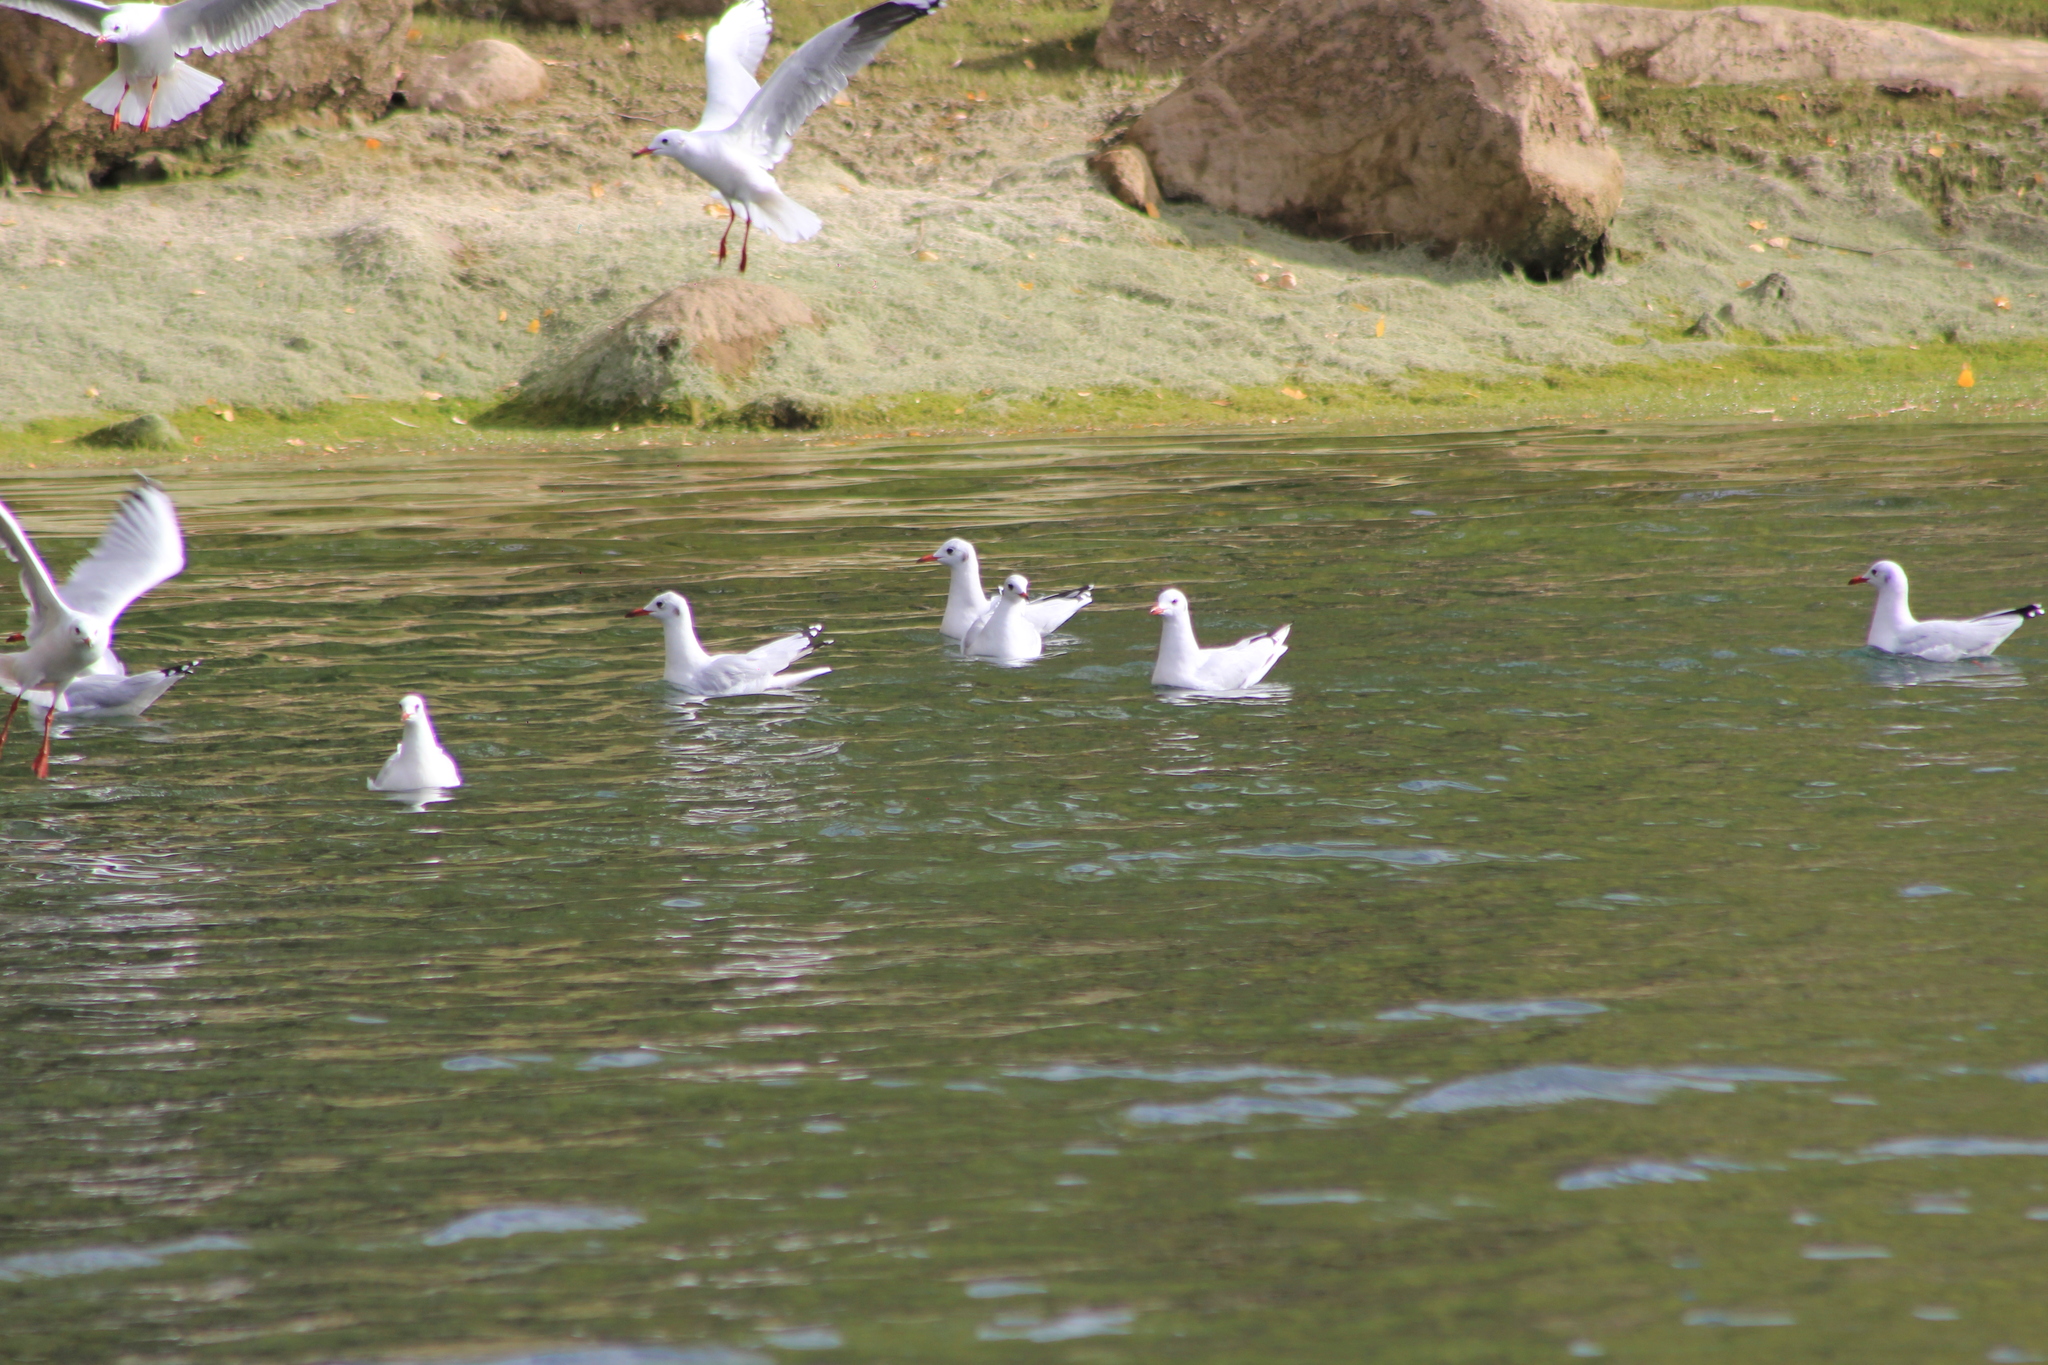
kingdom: Animalia
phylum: Chordata
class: Aves
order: Charadriiformes
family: Laridae
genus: Chroicocephalus
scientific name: Chroicocephalus serranus
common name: Andean gull
